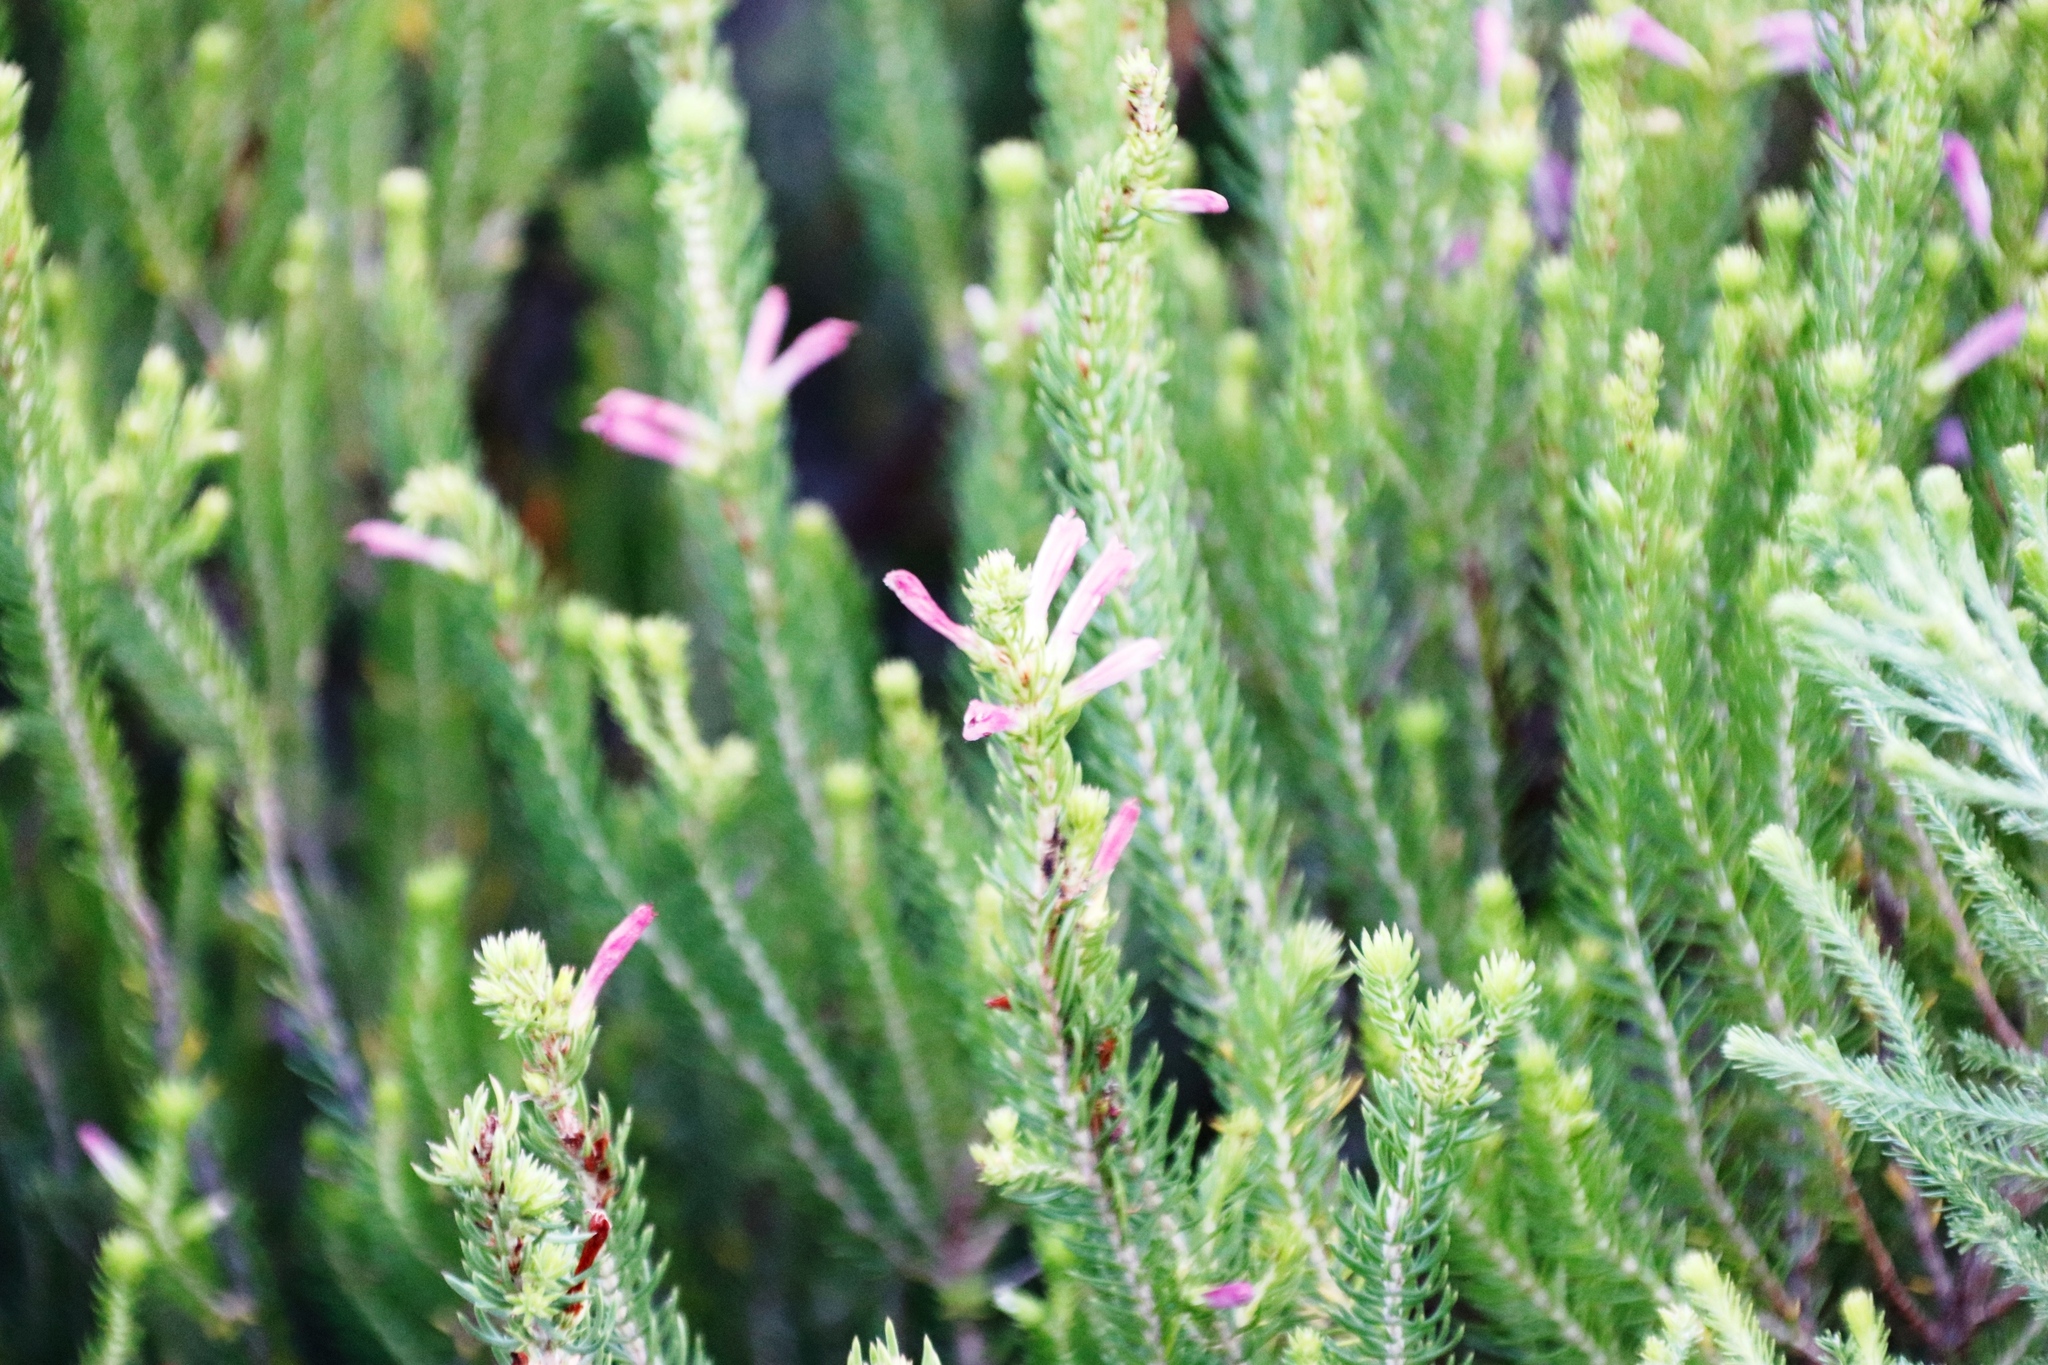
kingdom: Plantae
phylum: Tracheophyta
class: Magnoliopsida
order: Ericales
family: Ericaceae
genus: Erica
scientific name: Erica abietina
